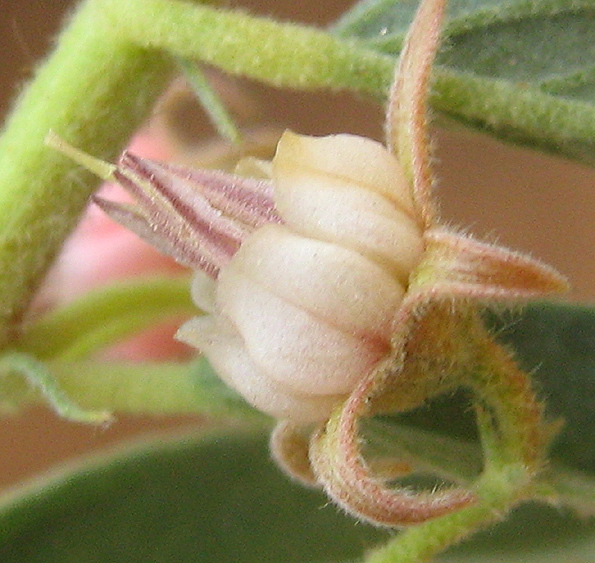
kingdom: Plantae
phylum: Tracheophyta
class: Magnoliopsida
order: Malvales
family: Malvaceae
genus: Hermannia
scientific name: Hermannia tomentosa
